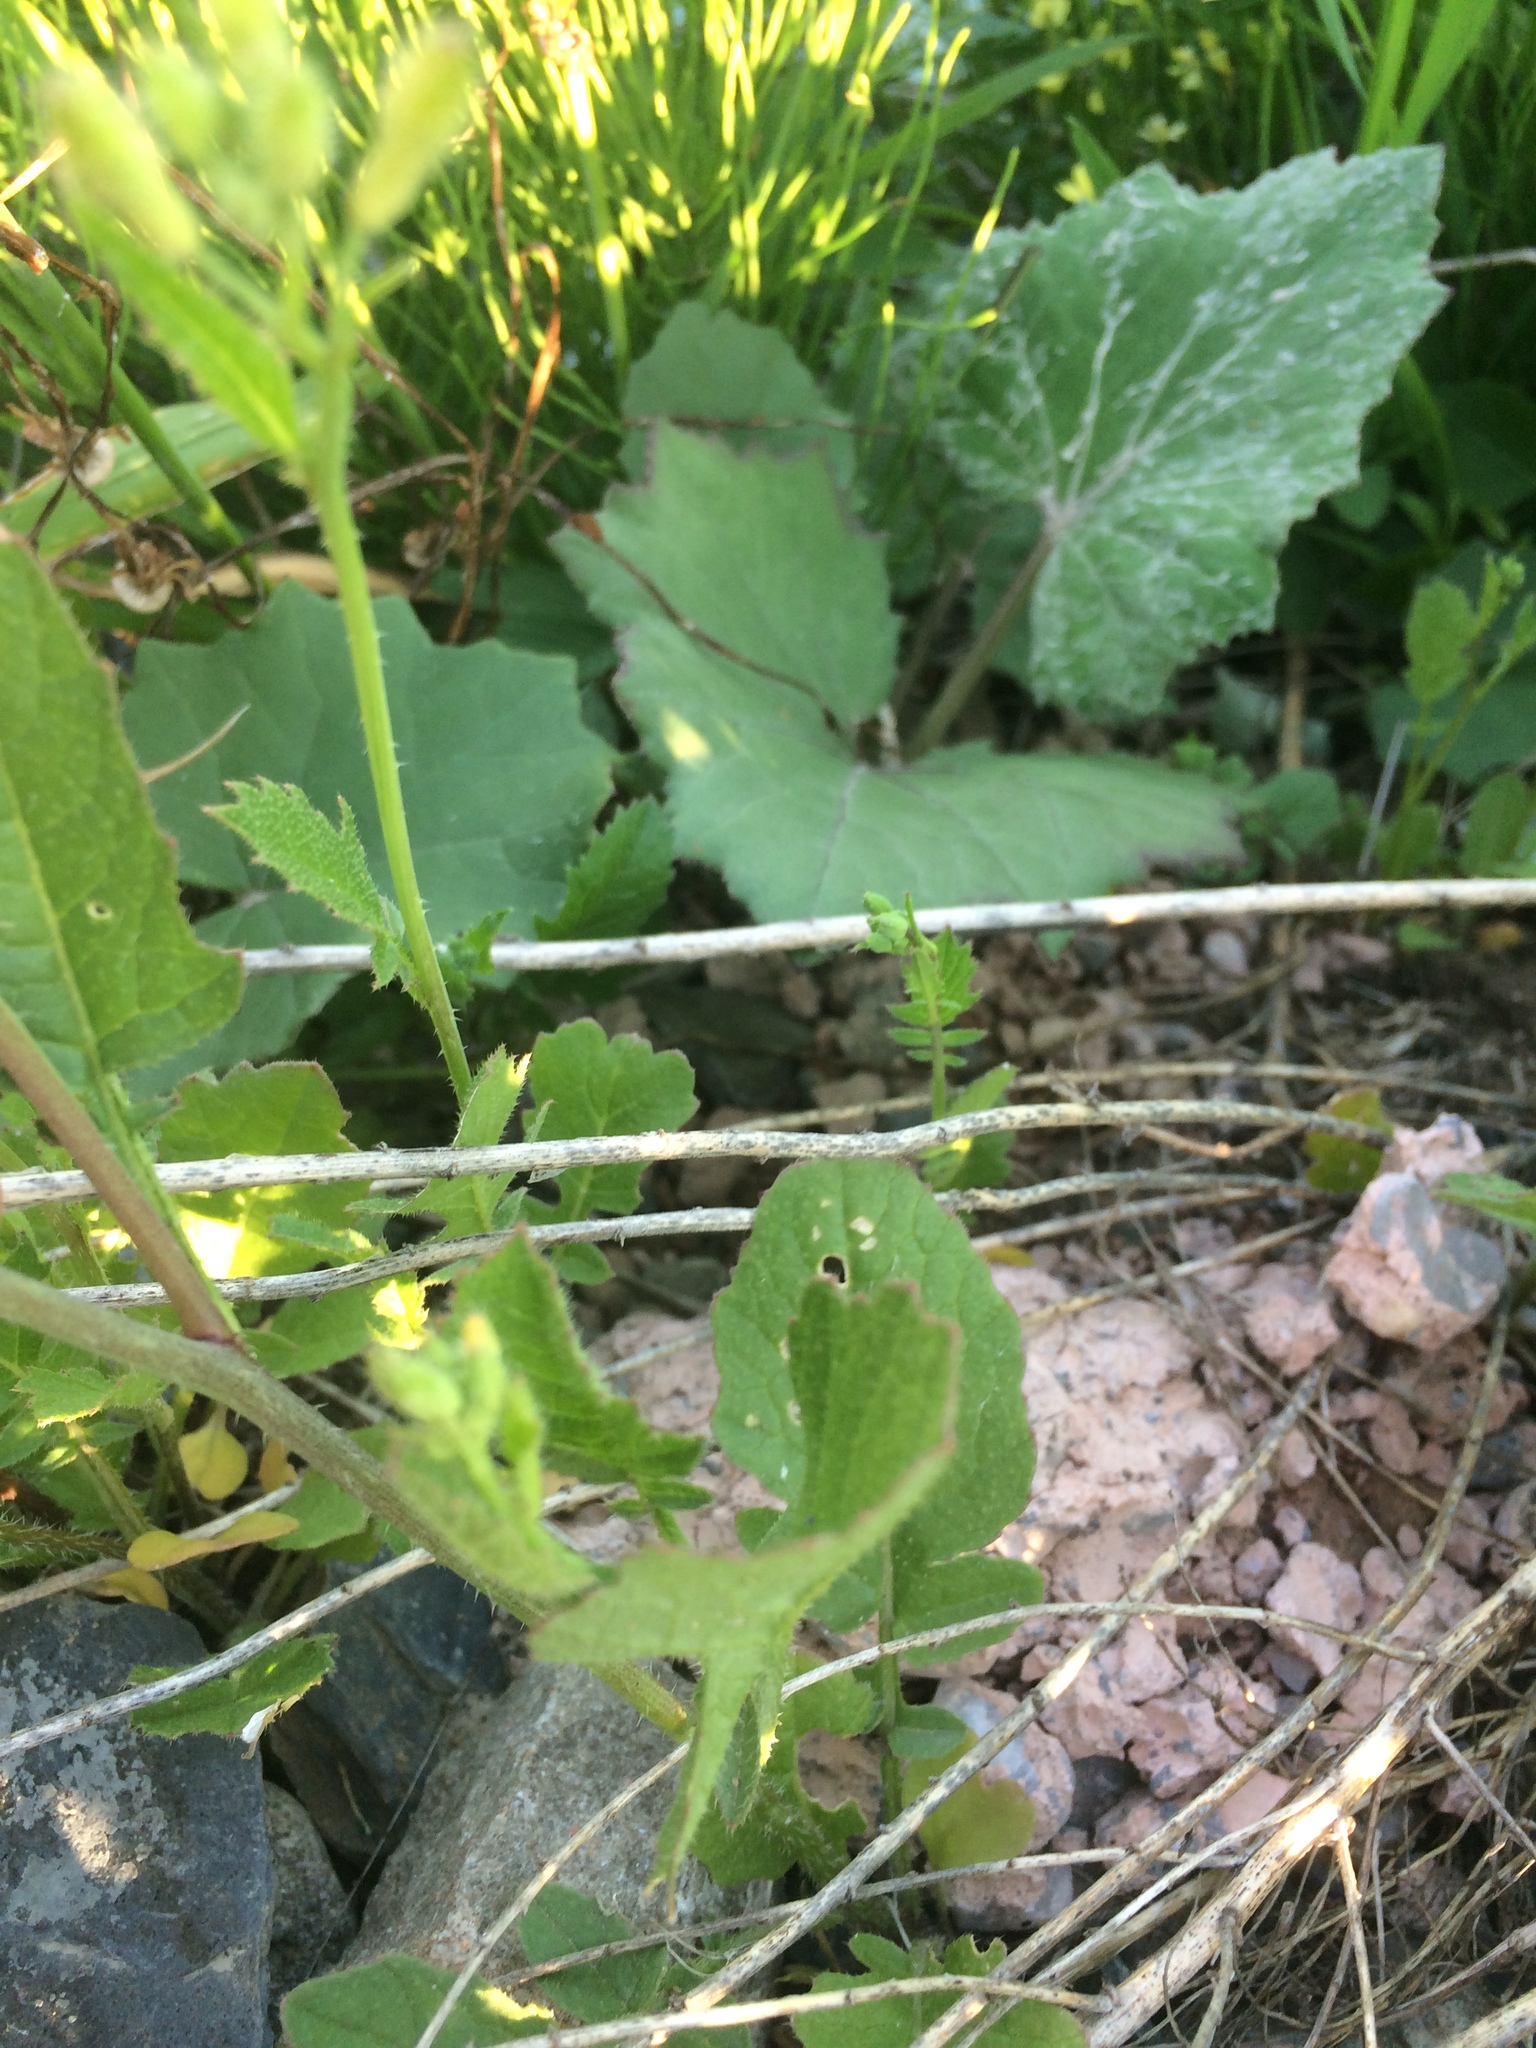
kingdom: Plantae
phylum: Tracheophyta
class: Magnoliopsida
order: Brassicales
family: Brassicaceae
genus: Raphanus
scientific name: Raphanus raphanistrum
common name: Wild radish
